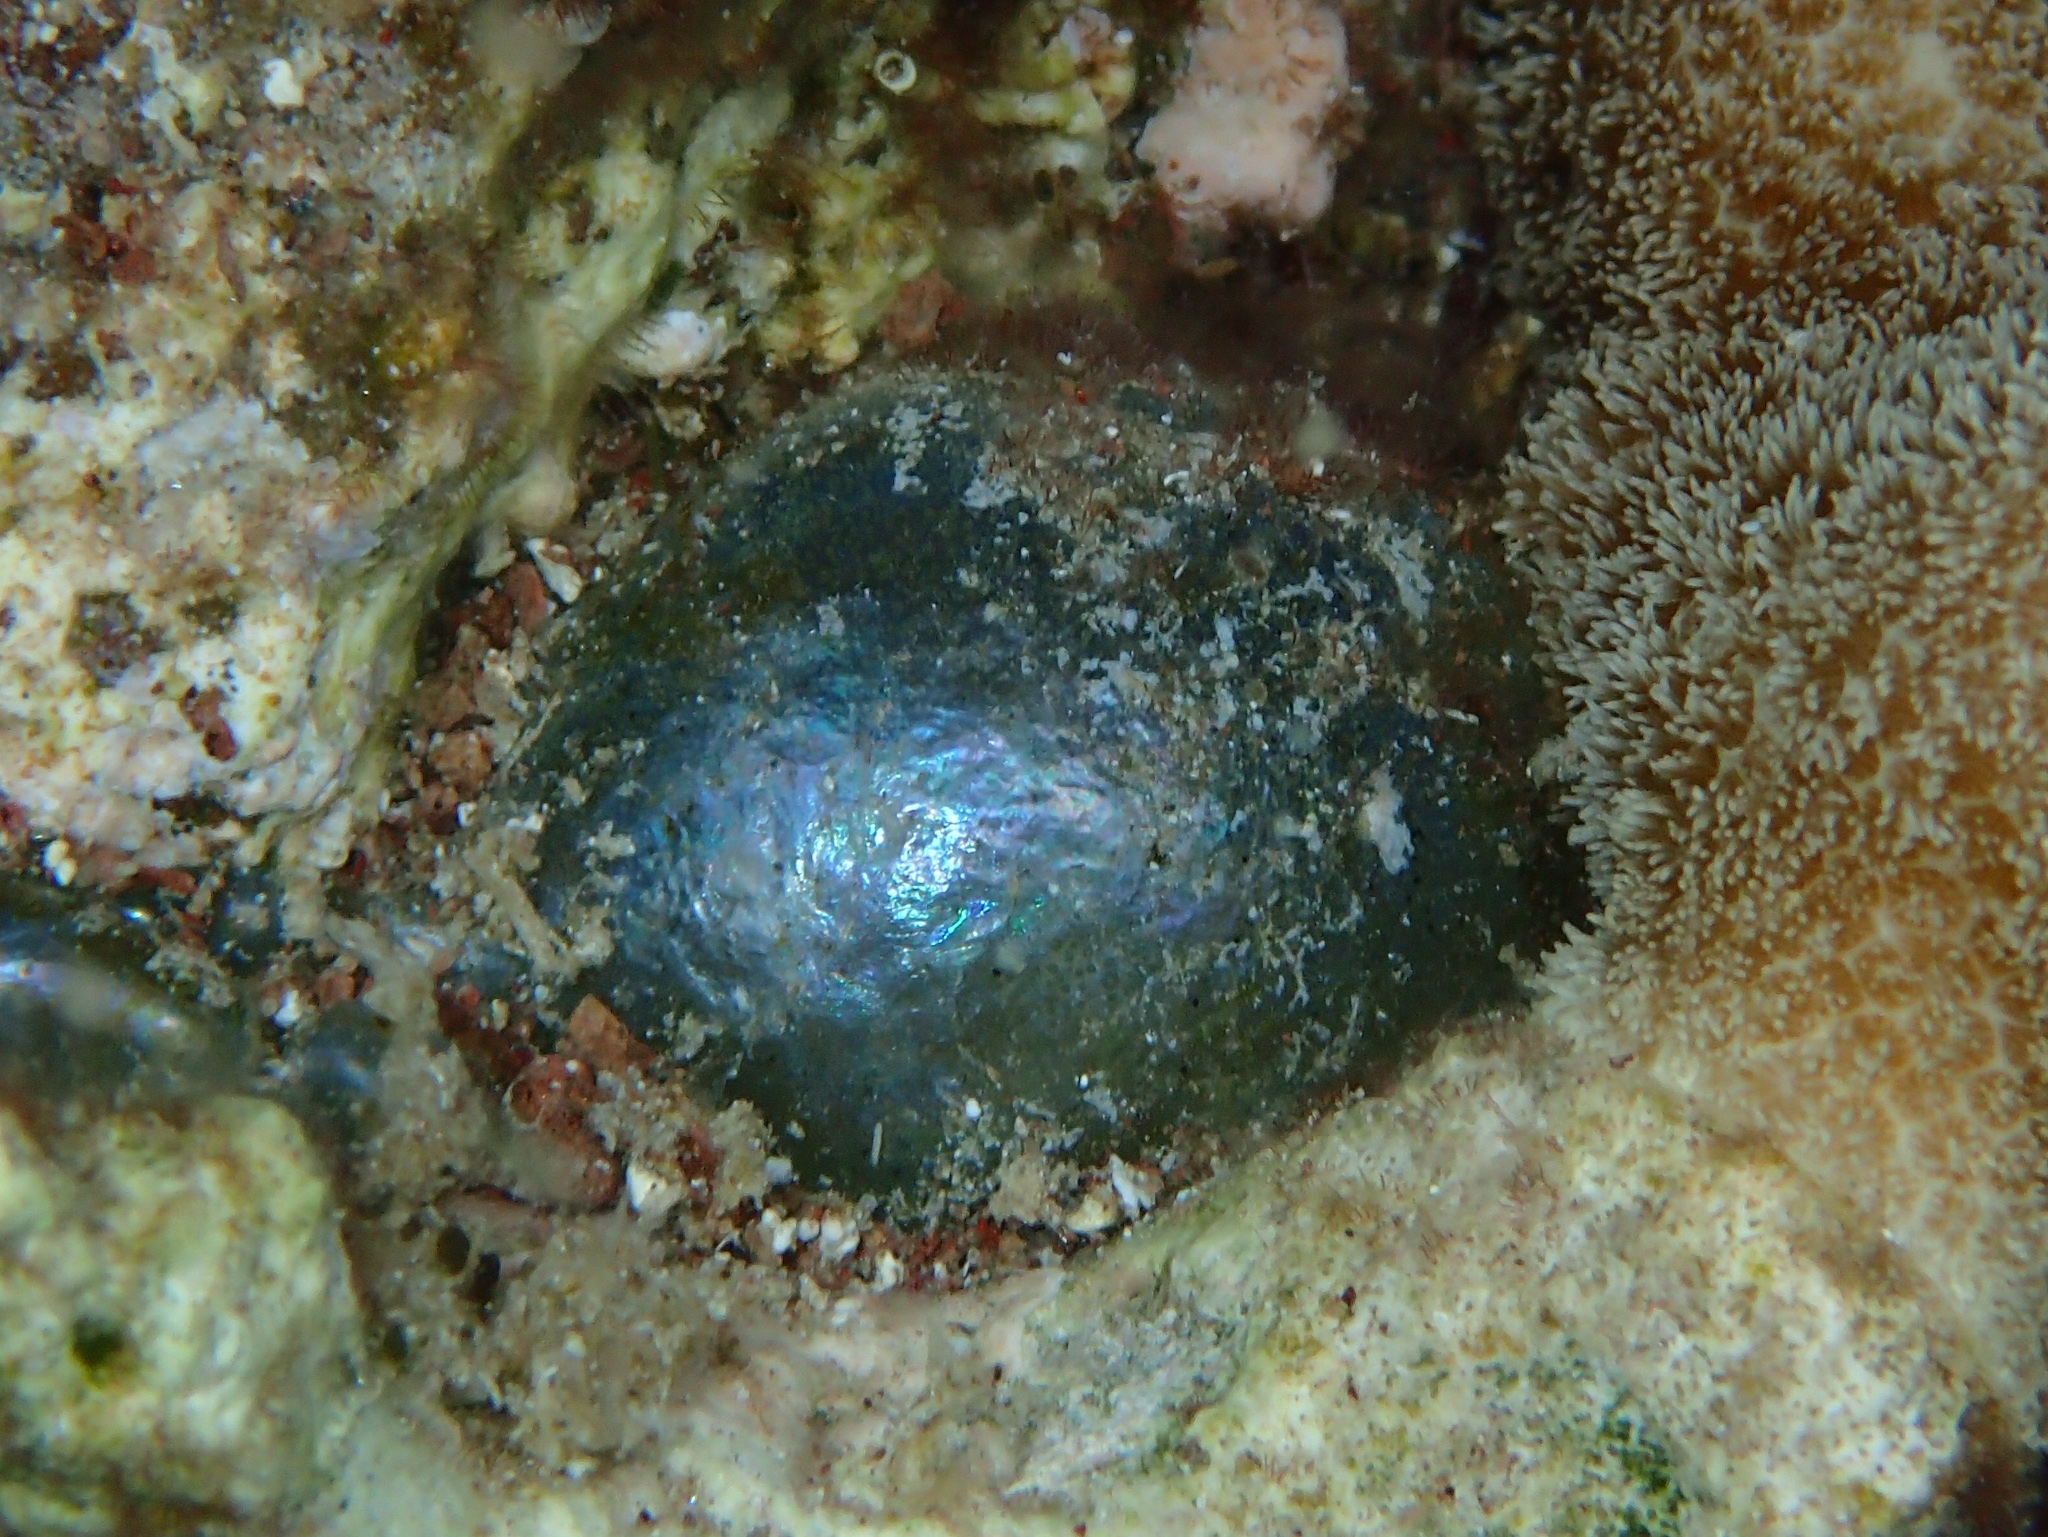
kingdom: Plantae
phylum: Chlorophyta
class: Ulvophyceae
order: Siphonocladales
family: Valoniaceae
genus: Valonia
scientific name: Valonia ventricosa
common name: Sea pearl
